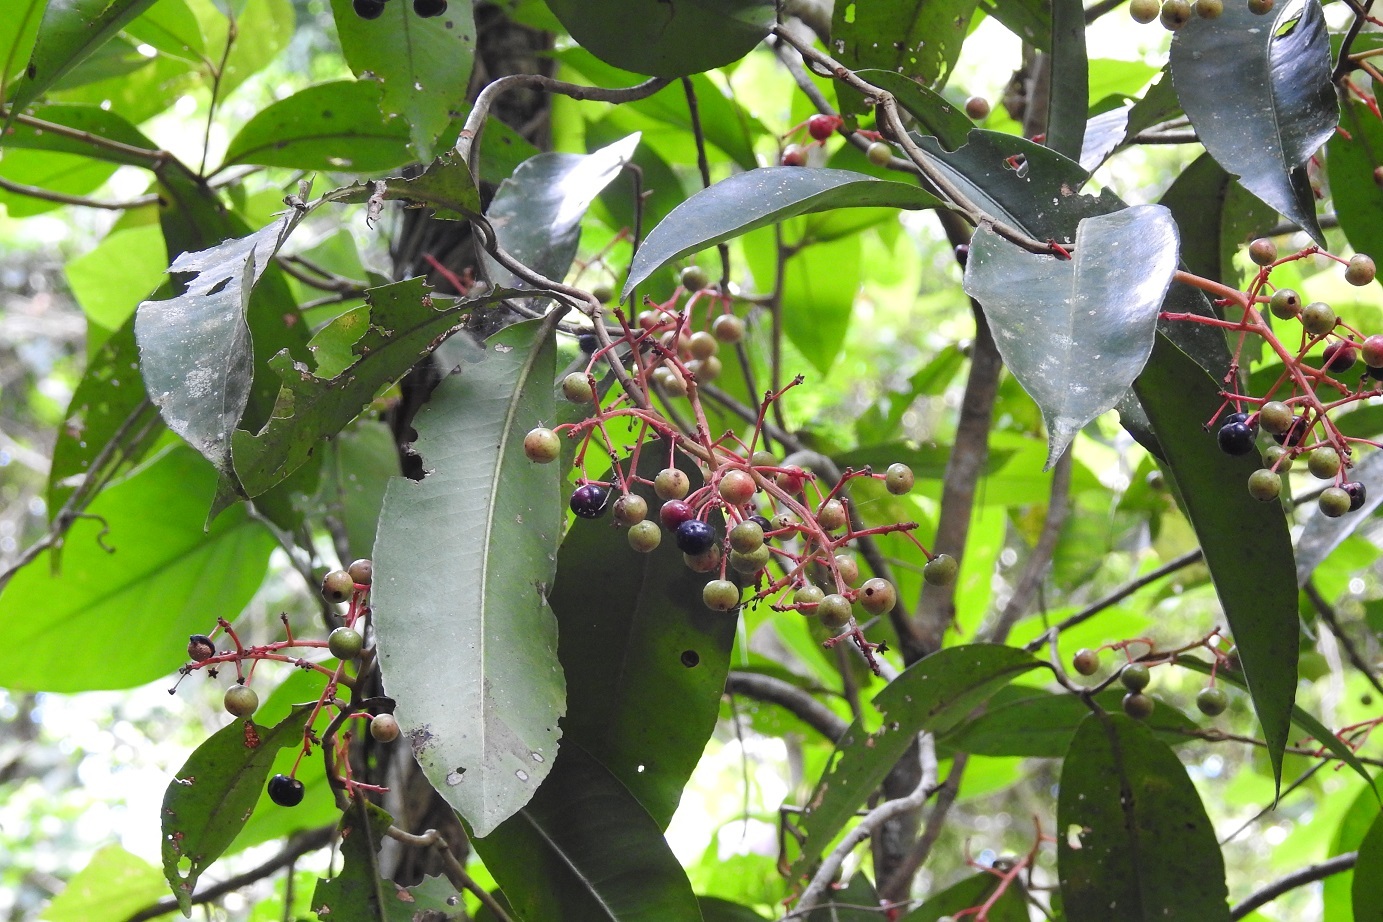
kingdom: Plantae
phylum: Tracheophyta
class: Magnoliopsida
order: Ericales
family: Primulaceae
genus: Gentlea
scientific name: Gentlea micranthera
